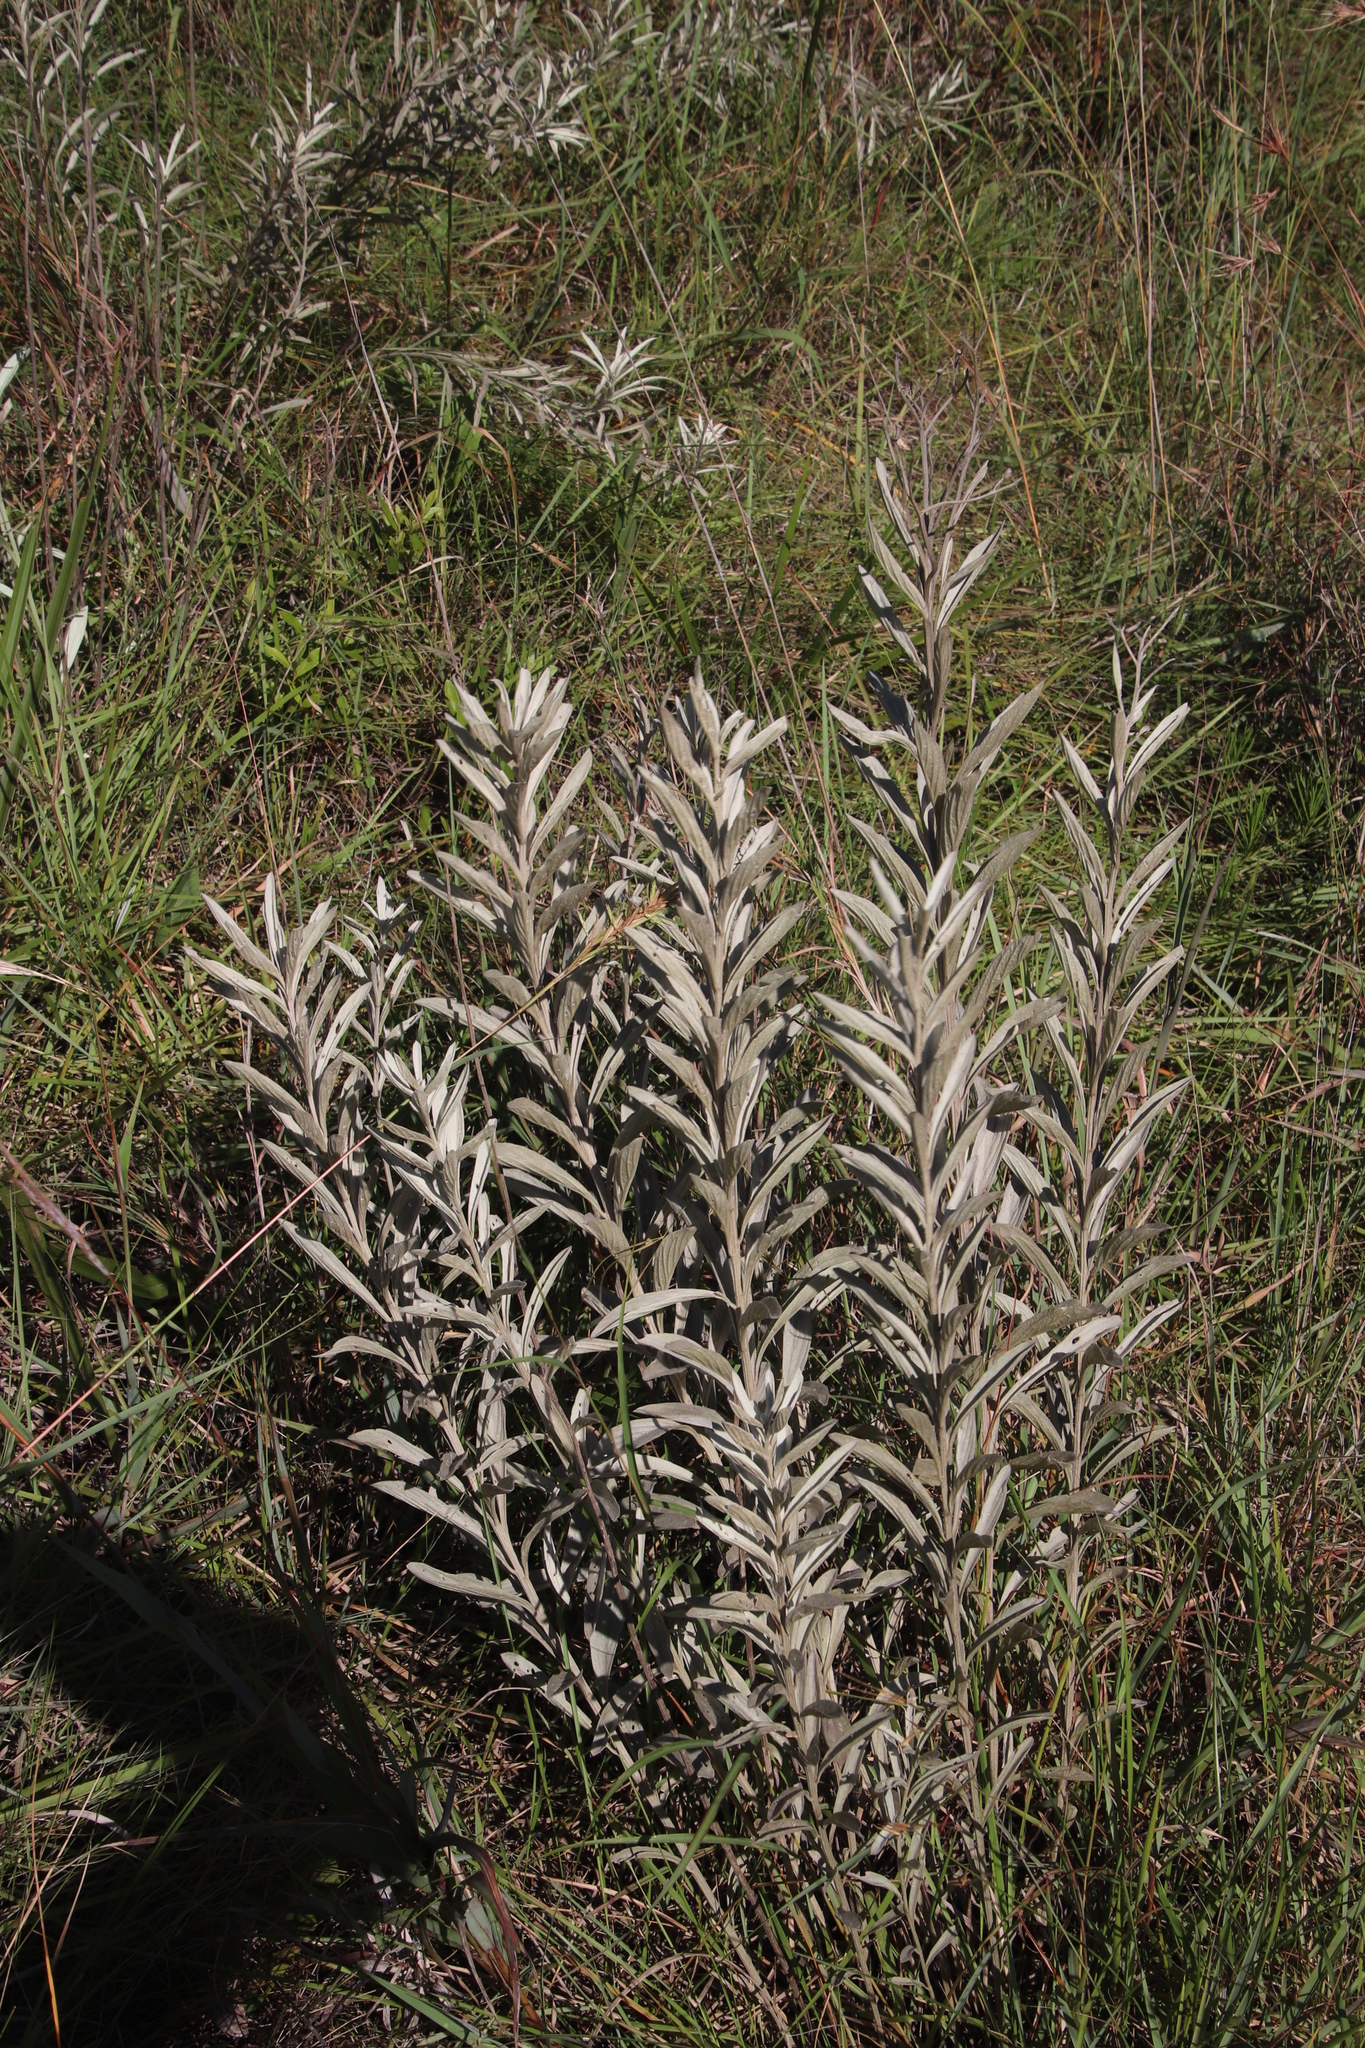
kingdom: Plantae
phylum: Tracheophyta
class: Magnoliopsida
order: Asterales
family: Asteraceae
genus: Hilliardiella
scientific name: Hilliardiella aristata
